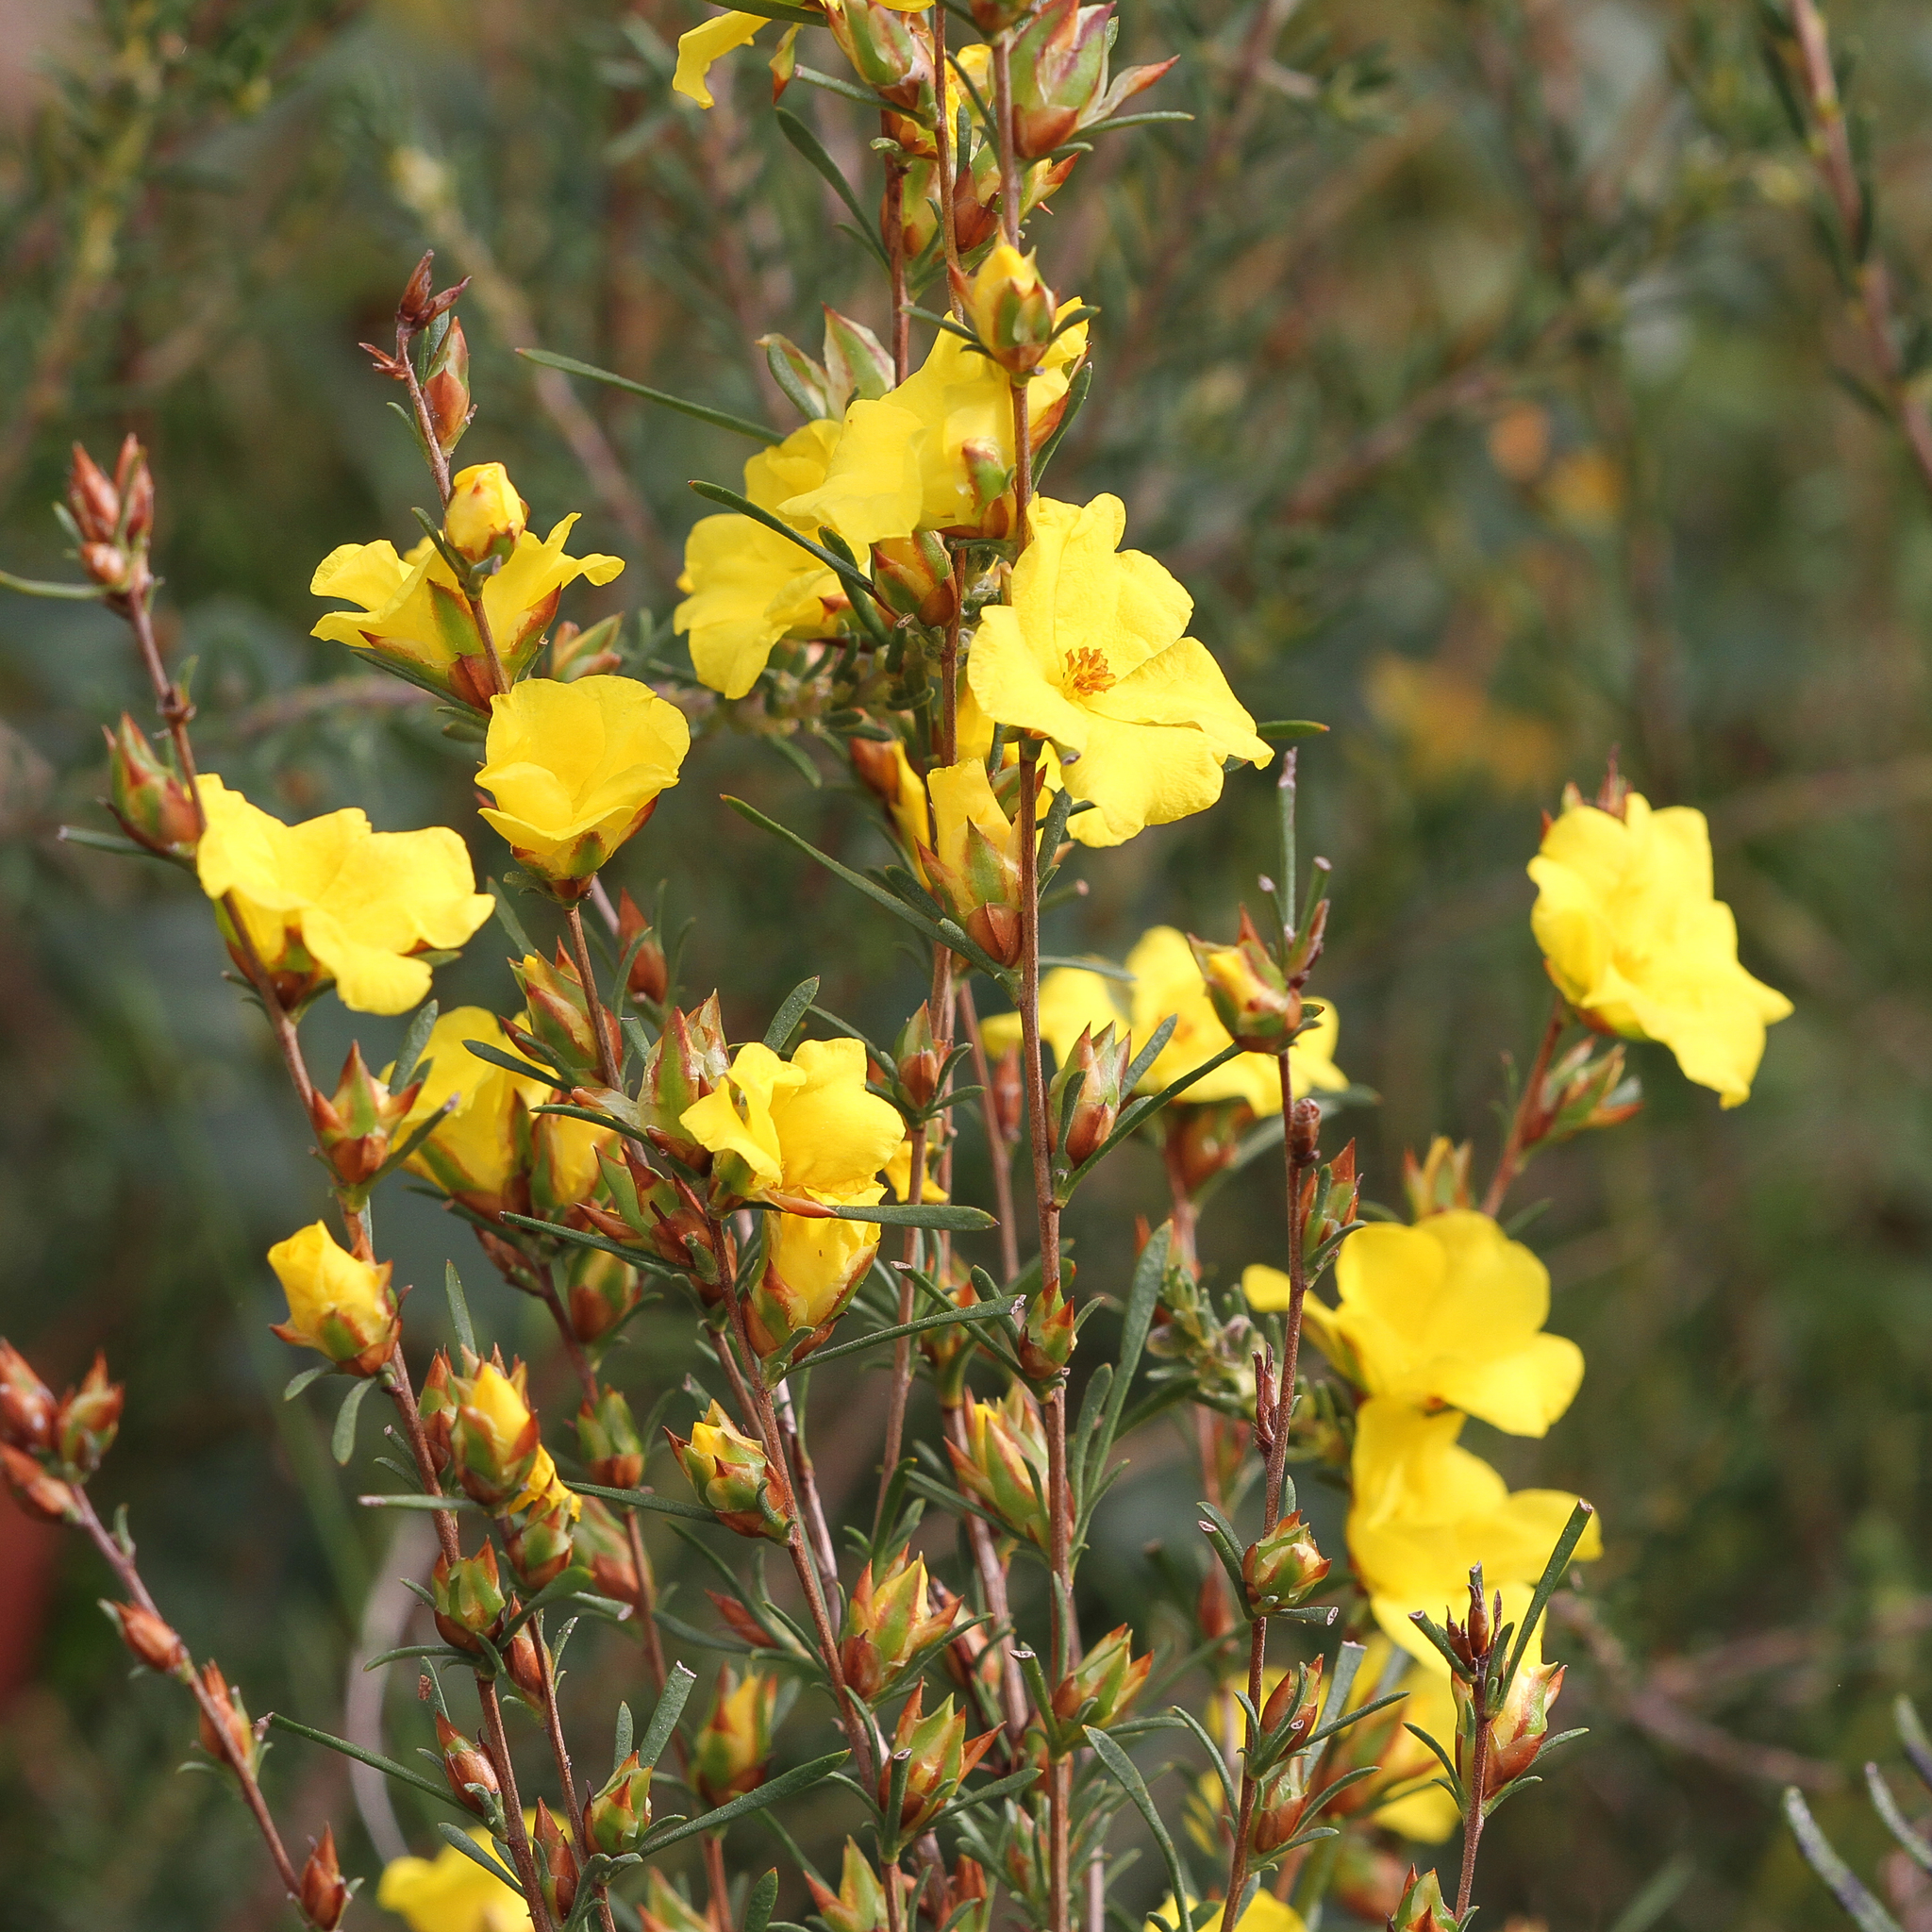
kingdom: Plantae
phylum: Tracheophyta
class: Magnoliopsida
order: Dilleniales
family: Dilleniaceae
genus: Hibbertia
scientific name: Hibbertia virgata
